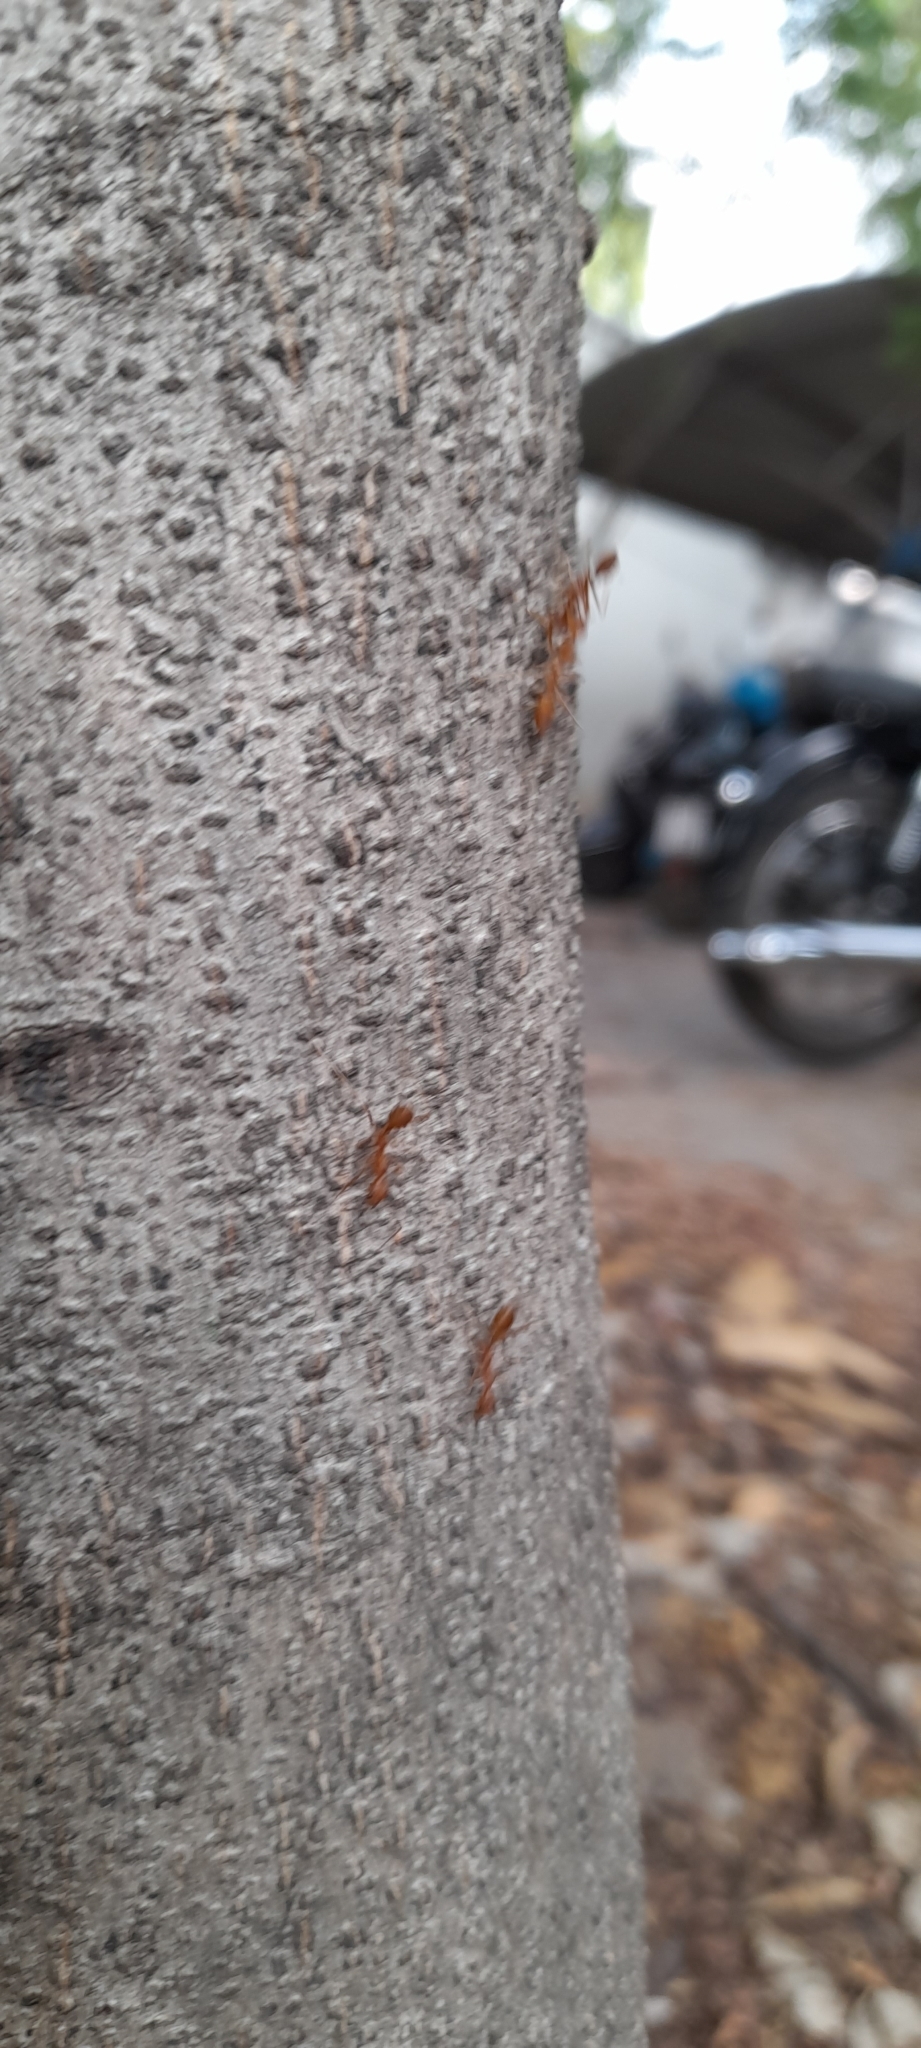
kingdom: Animalia
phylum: Arthropoda
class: Insecta
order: Hymenoptera
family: Formicidae
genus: Oecophylla
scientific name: Oecophylla smaragdina
